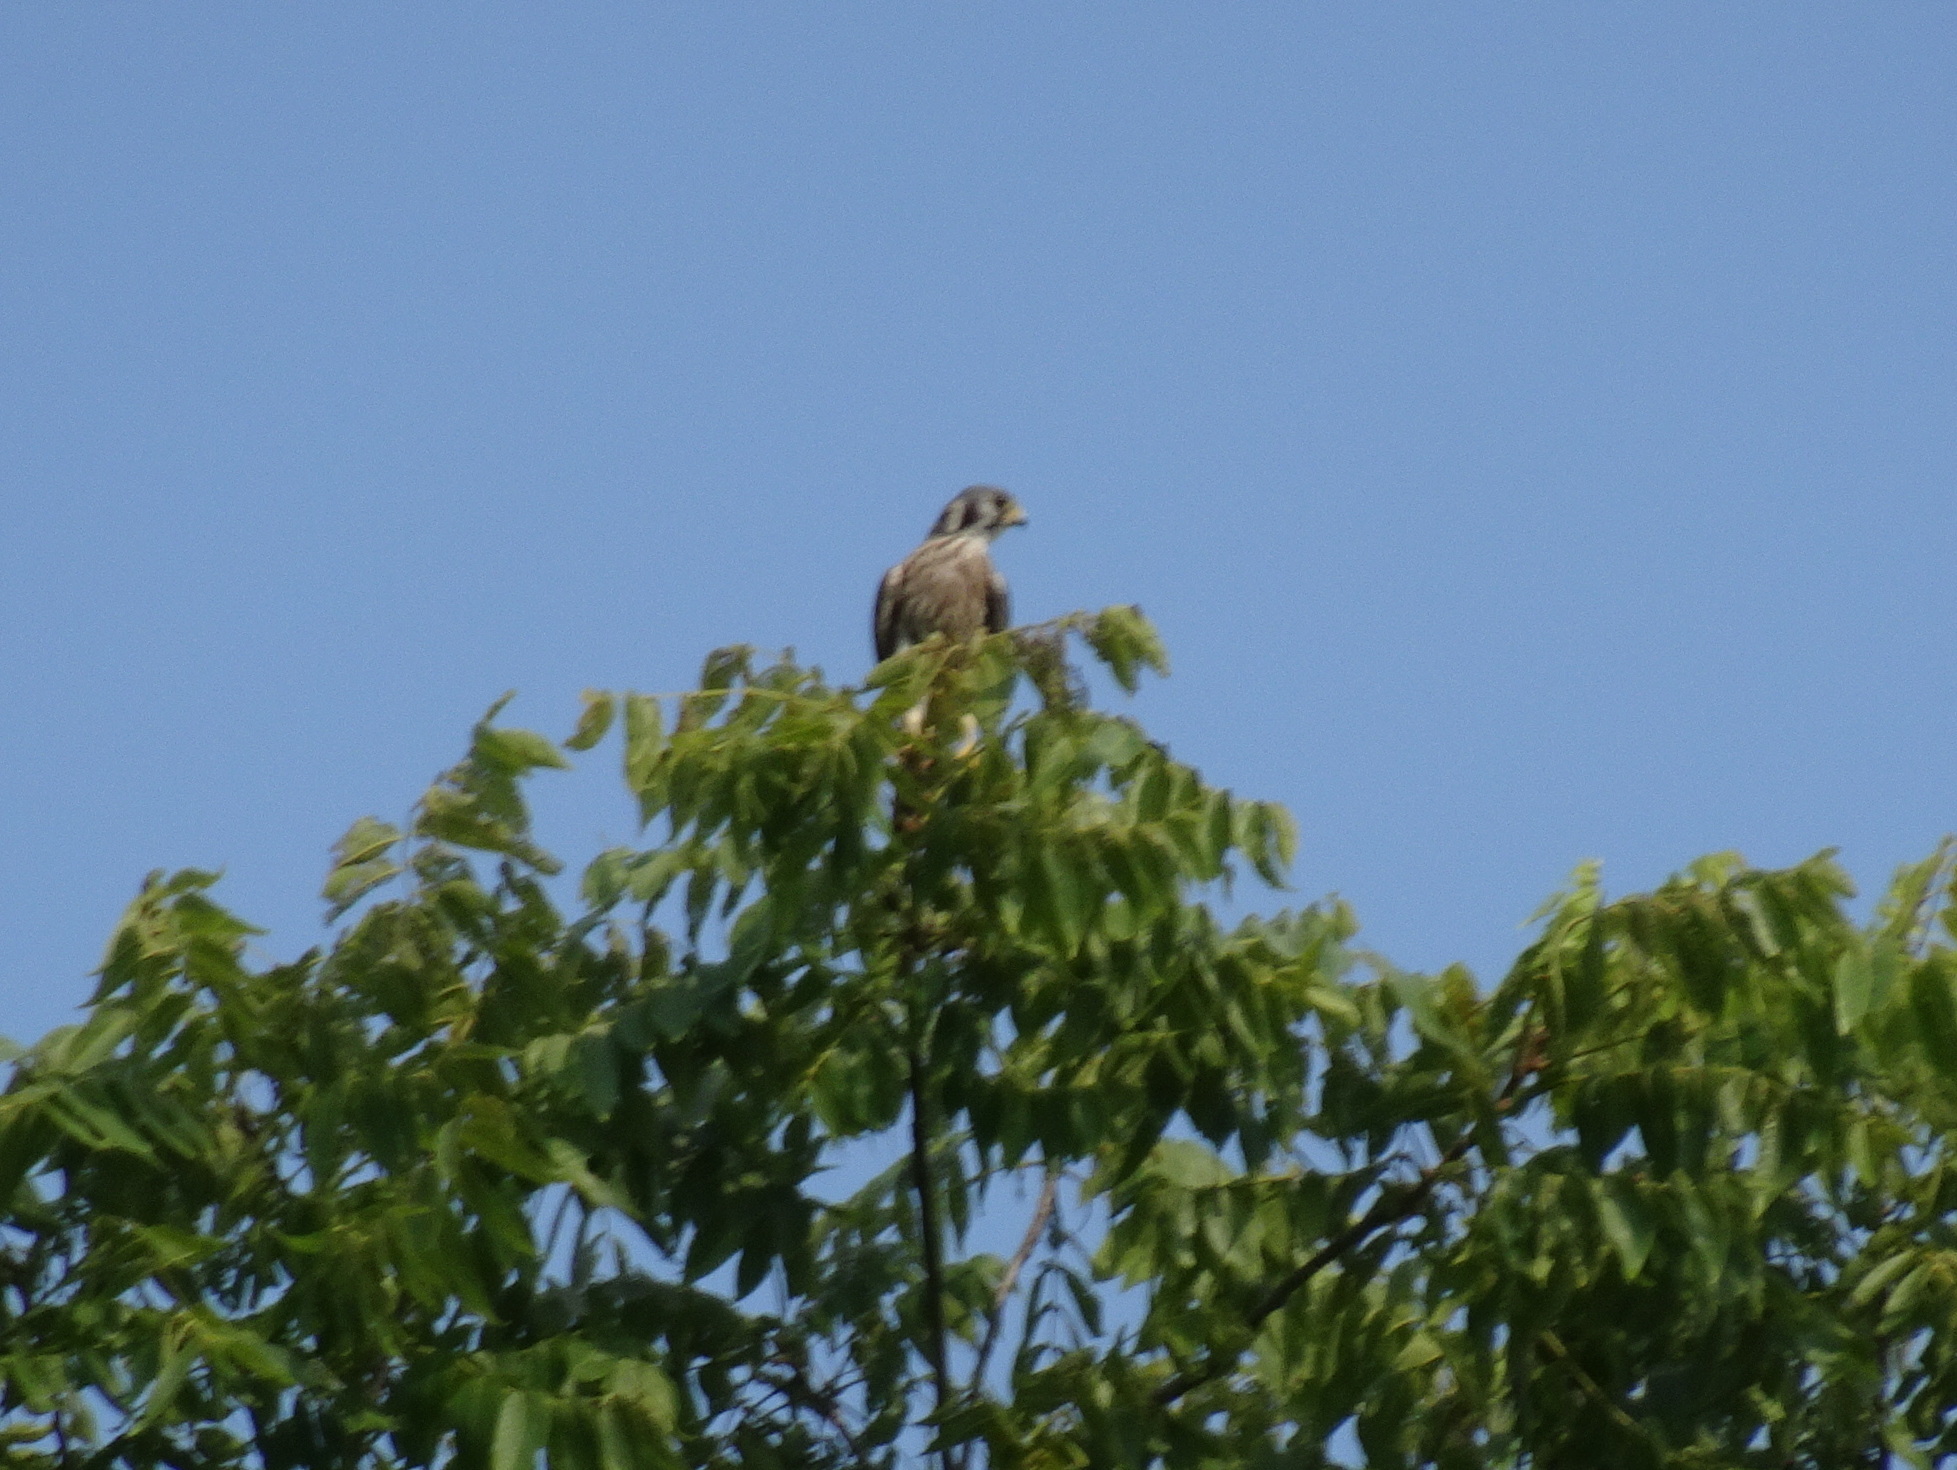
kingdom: Animalia
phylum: Chordata
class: Aves
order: Falconiformes
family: Falconidae
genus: Falco
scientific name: Falco sparverius
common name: American kestrel
